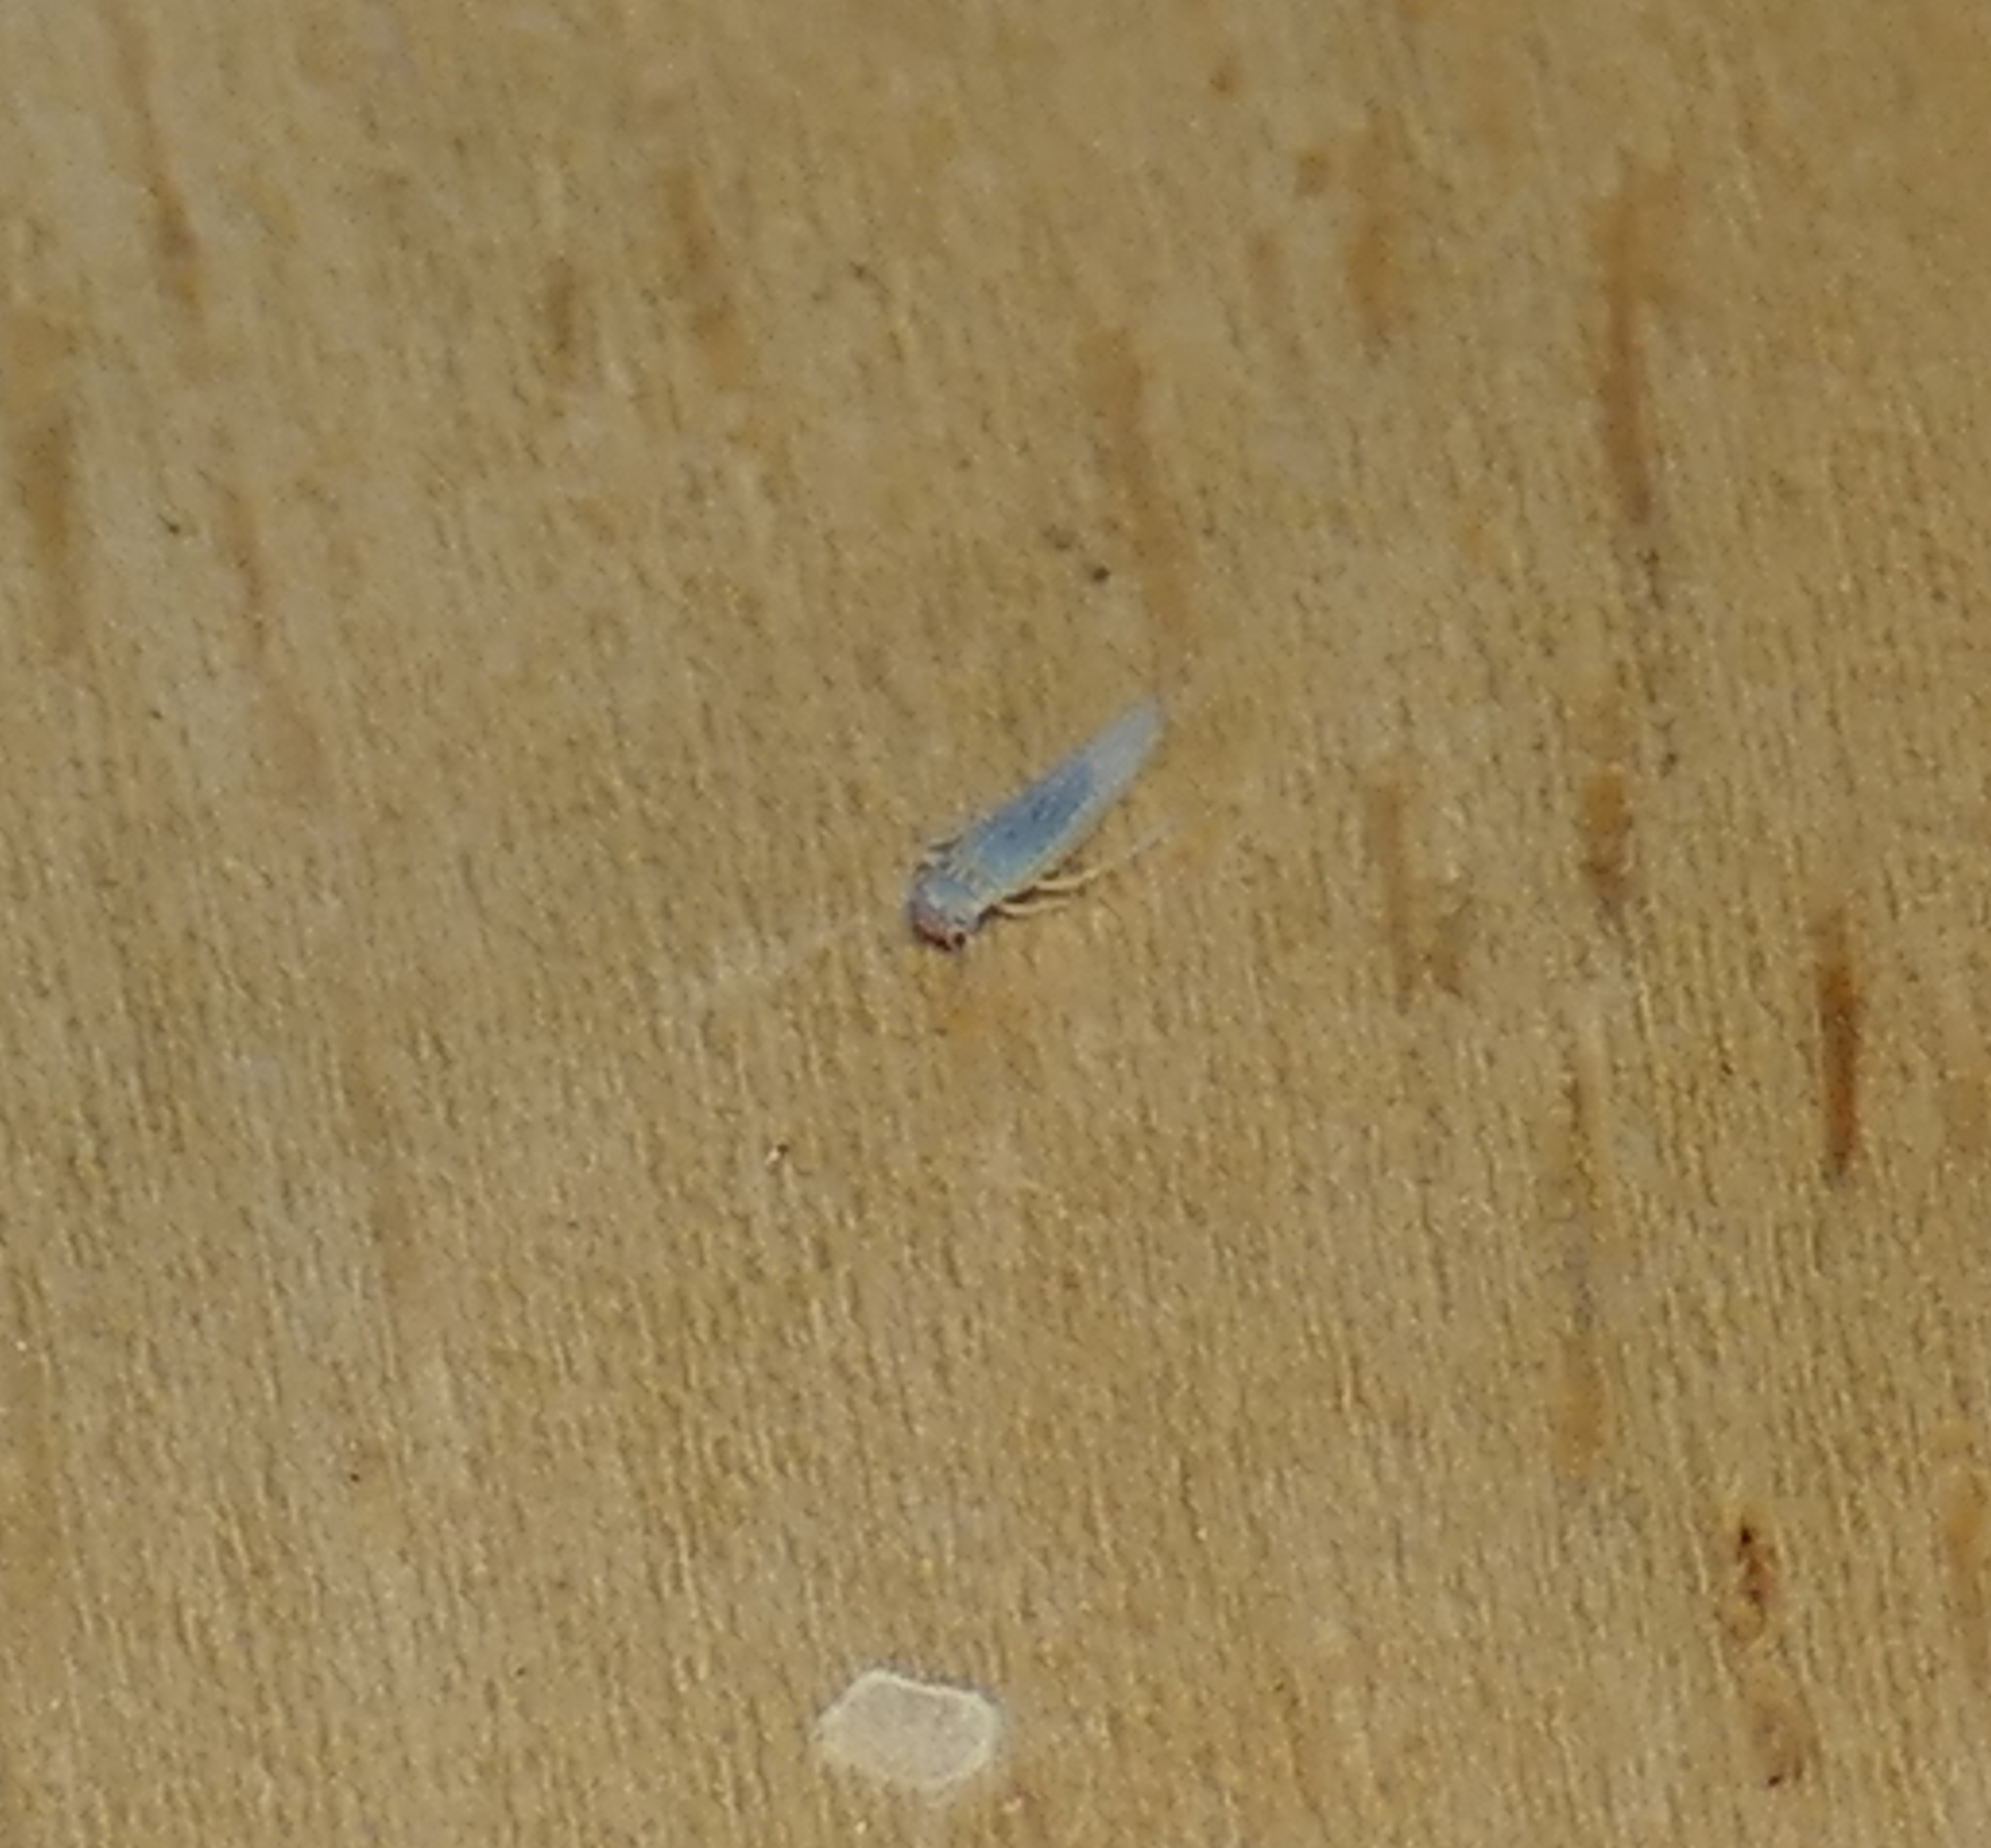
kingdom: Animalia
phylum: Arthropoda
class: Insecta
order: Hemiptera
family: Cicadellidae
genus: Balclutha
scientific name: Balclutha
